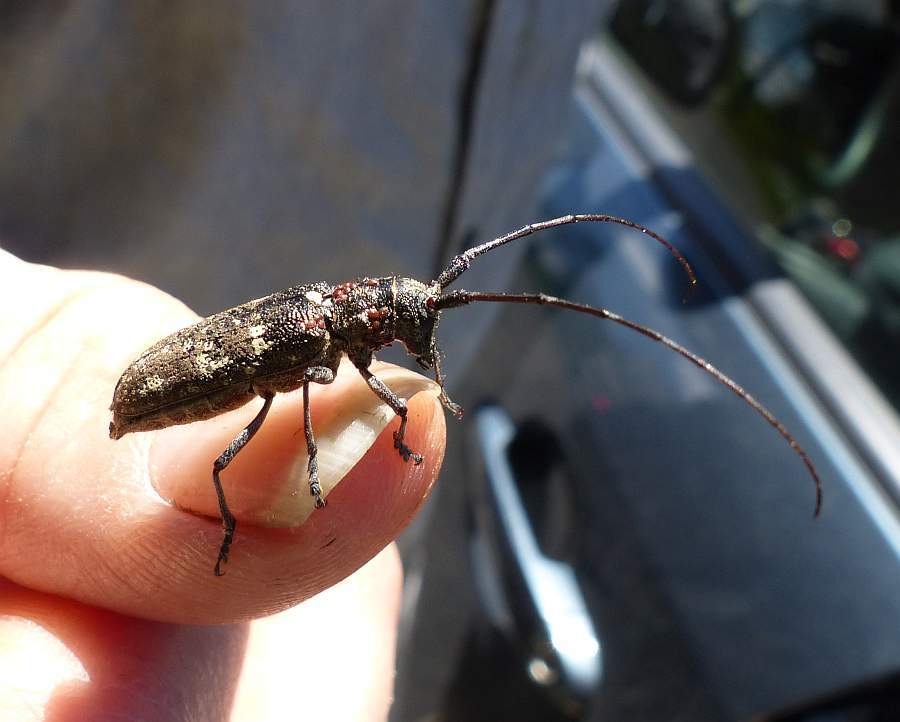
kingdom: Animalia
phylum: Arthropoda
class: Insecta
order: Coleoptera
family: Cerambycidae
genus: Monochamus
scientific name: Monochamus scutellatus
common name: White-spotted sawyer beetle
